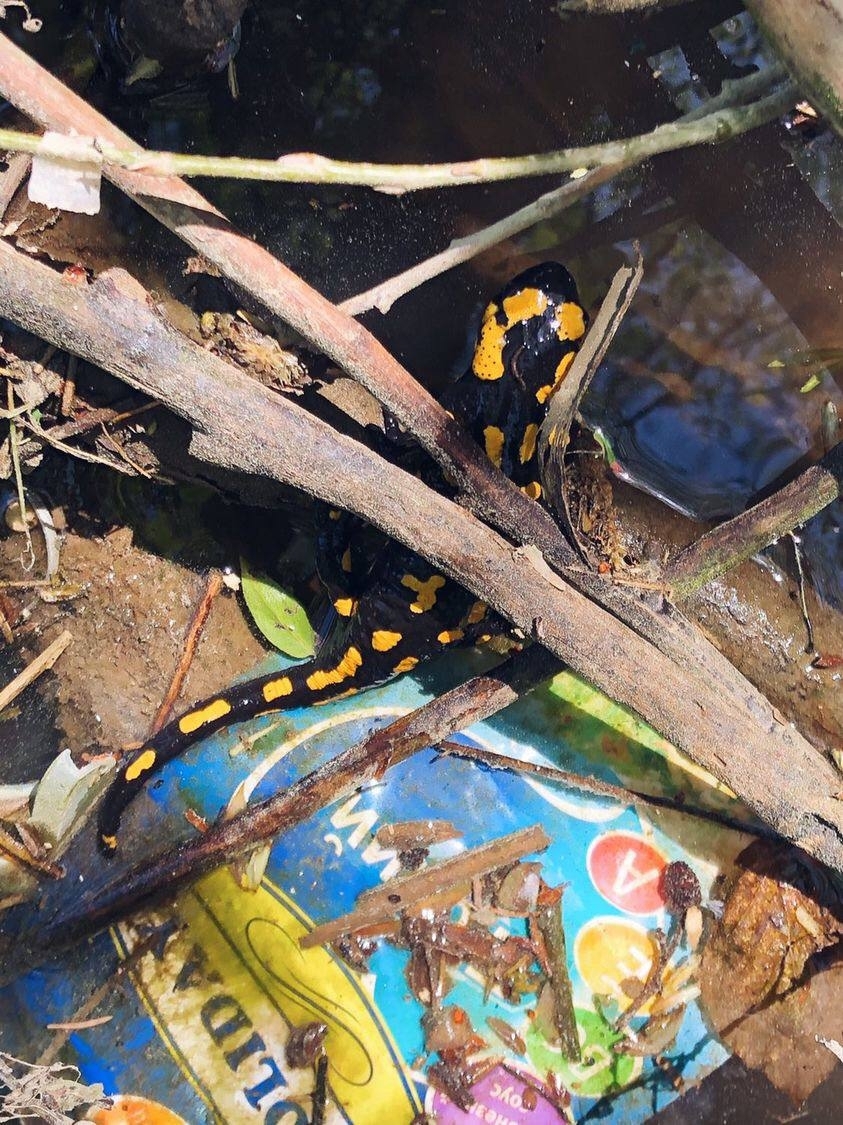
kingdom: Animalia
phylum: Chordata
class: Amphibia
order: Caudata
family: Salamandridae
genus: Salamandra
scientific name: Salamandra salamandra
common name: Fire salamander
